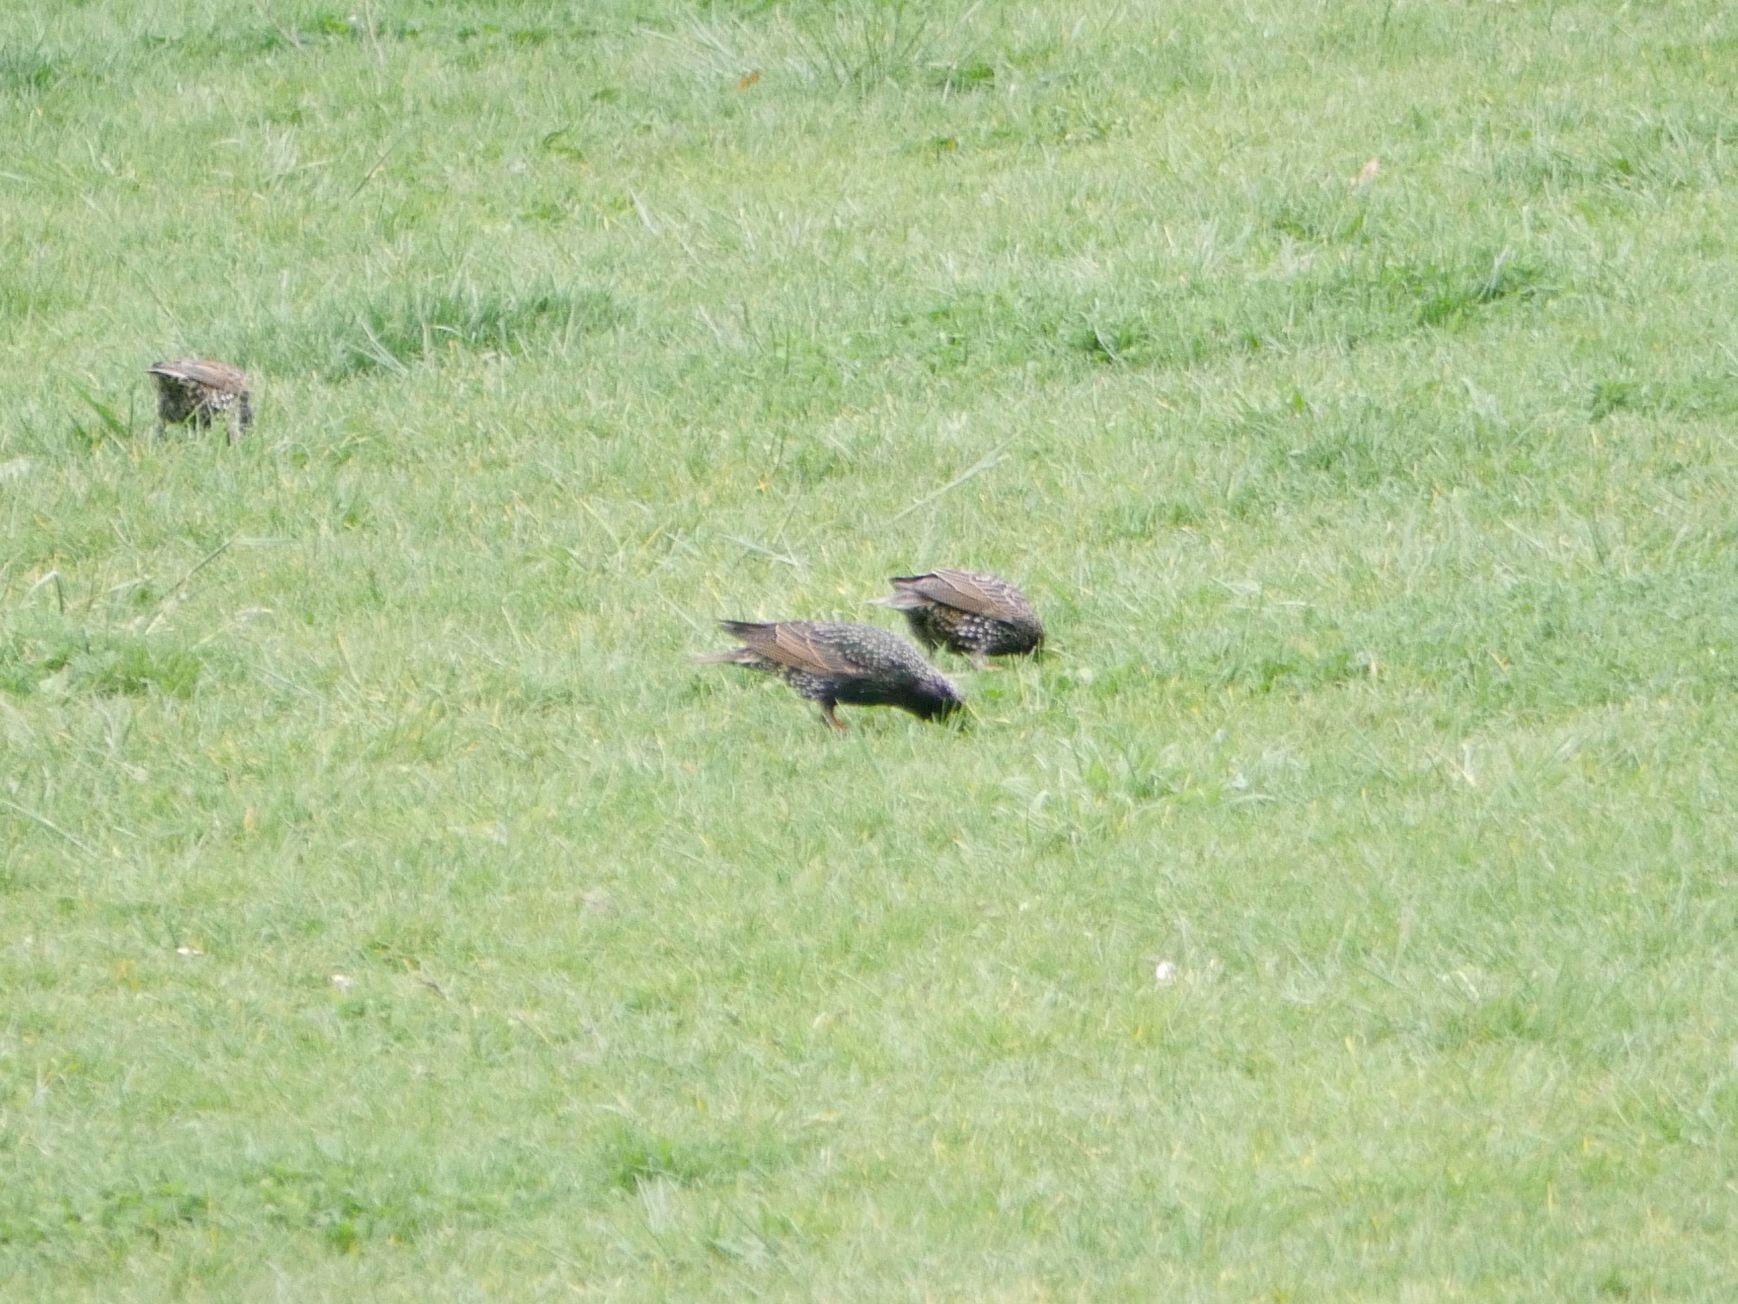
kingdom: Animalia
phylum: Chordata
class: Aves
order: Passeriformes
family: Sturnidae
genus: Sturnus
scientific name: Sturnus vulgaris
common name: Common starling
